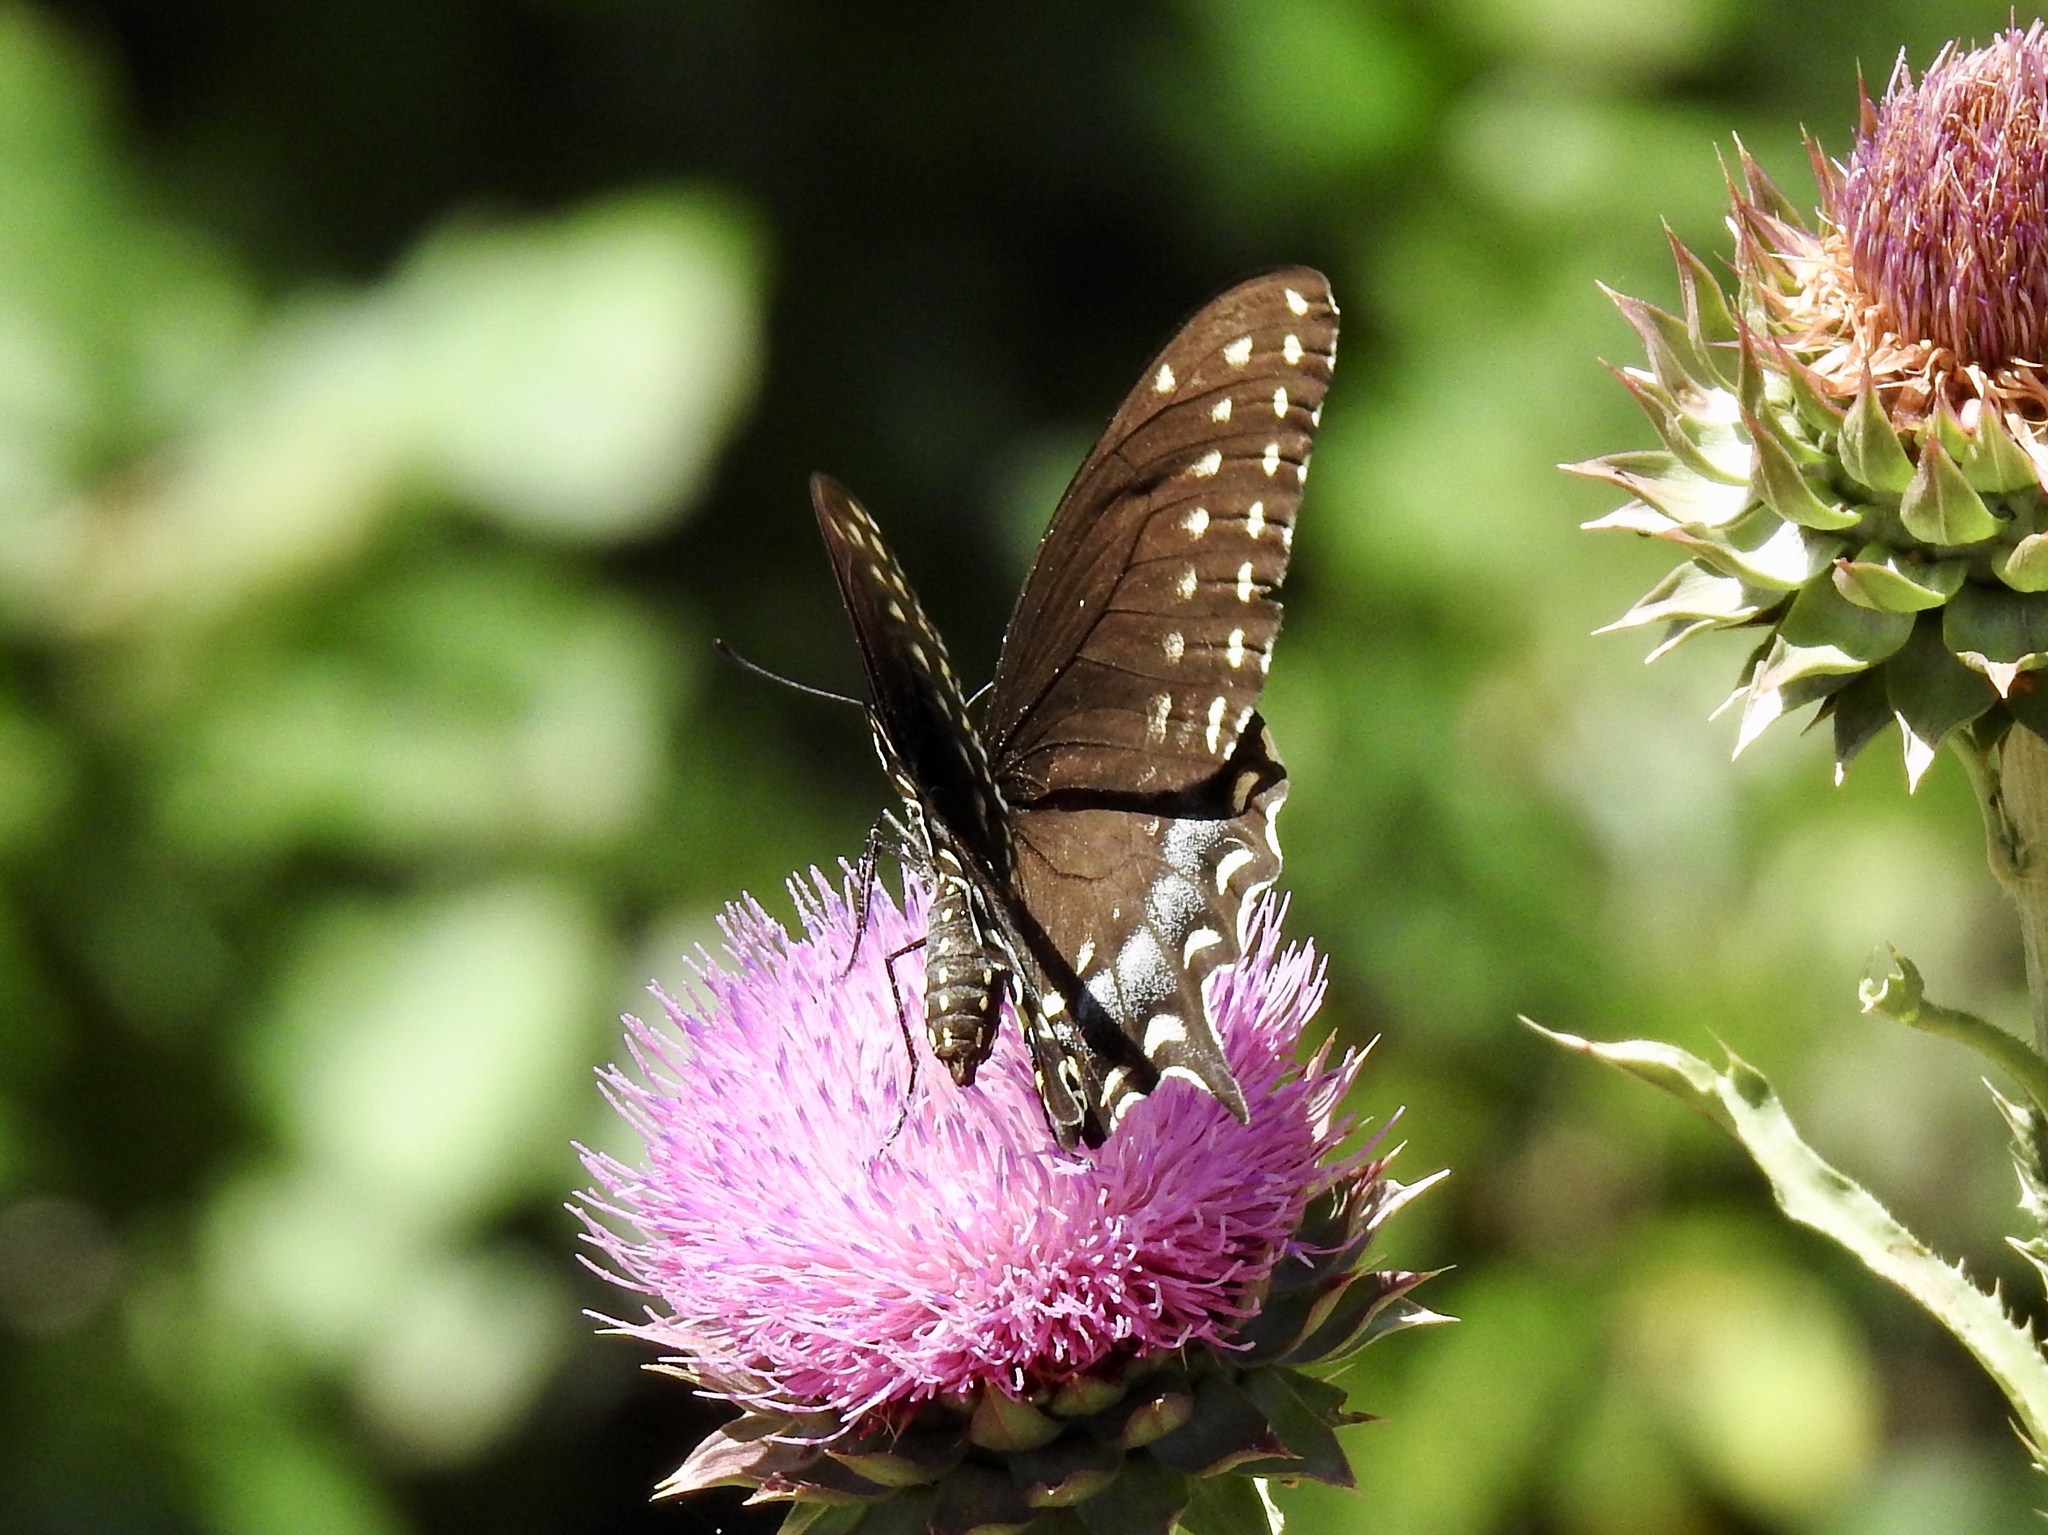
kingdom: Animalia
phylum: Arthropoda
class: Insecta
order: Lepidoptera
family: Papilionidae
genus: Papilio
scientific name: Papilio polyxenes
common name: Black swallowtail
